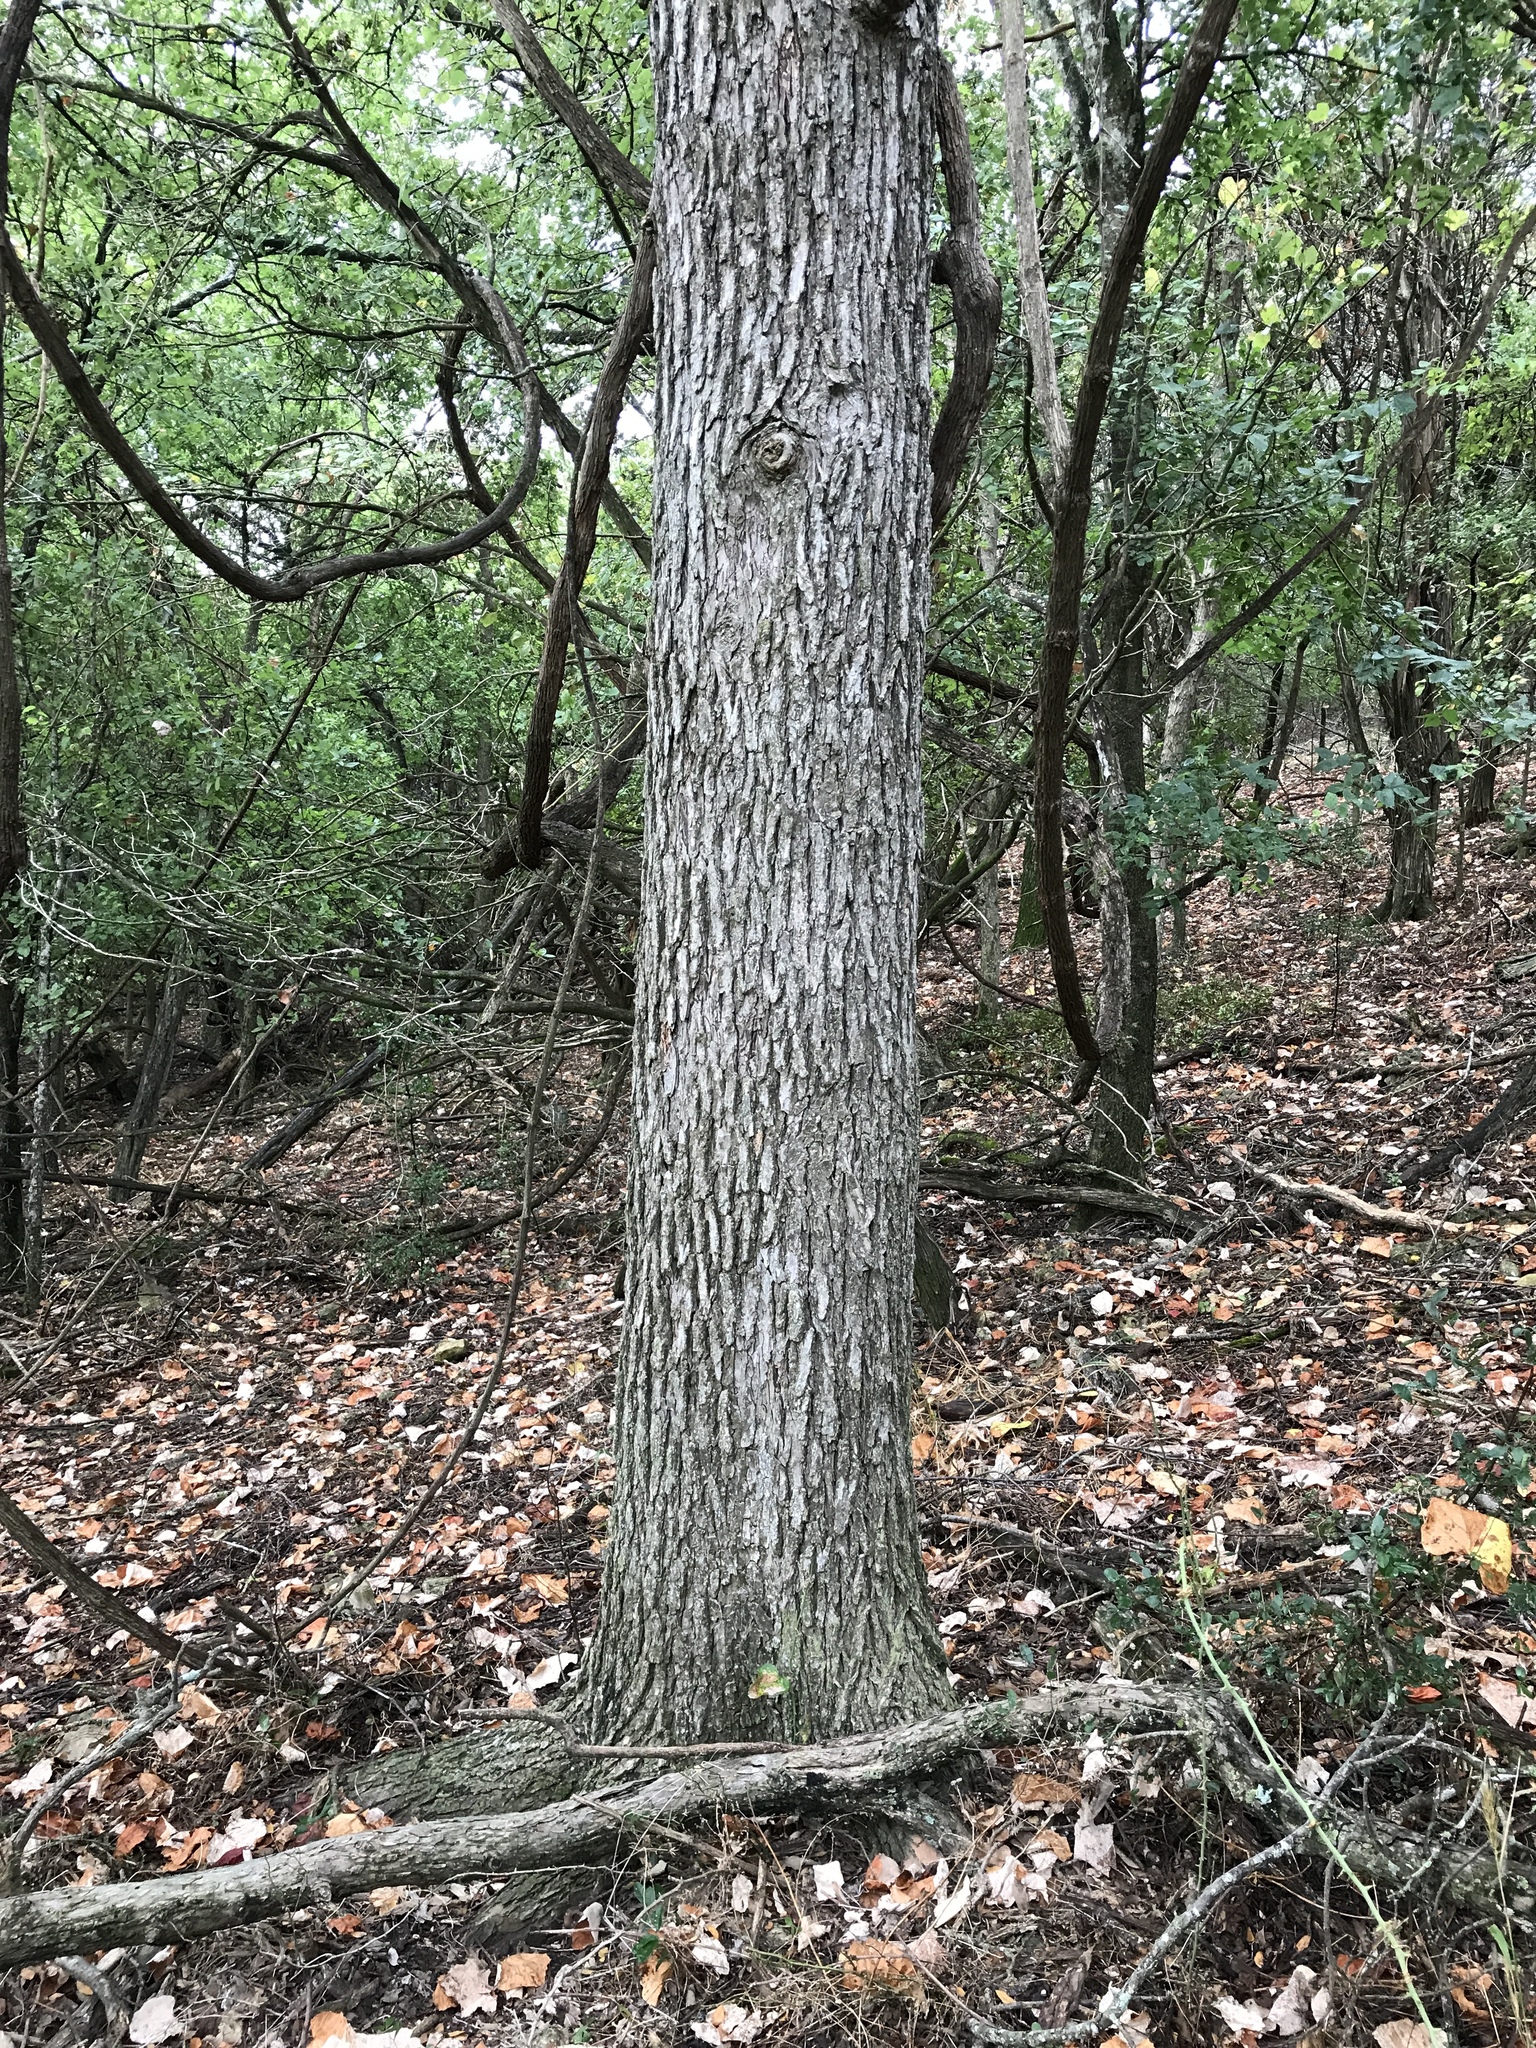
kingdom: Plantae
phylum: Tracheophyta
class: Magnoliopsida
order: Rosales
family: Ulmaceae
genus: Ulmus
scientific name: Ulmus crassifolia
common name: Basket elm
